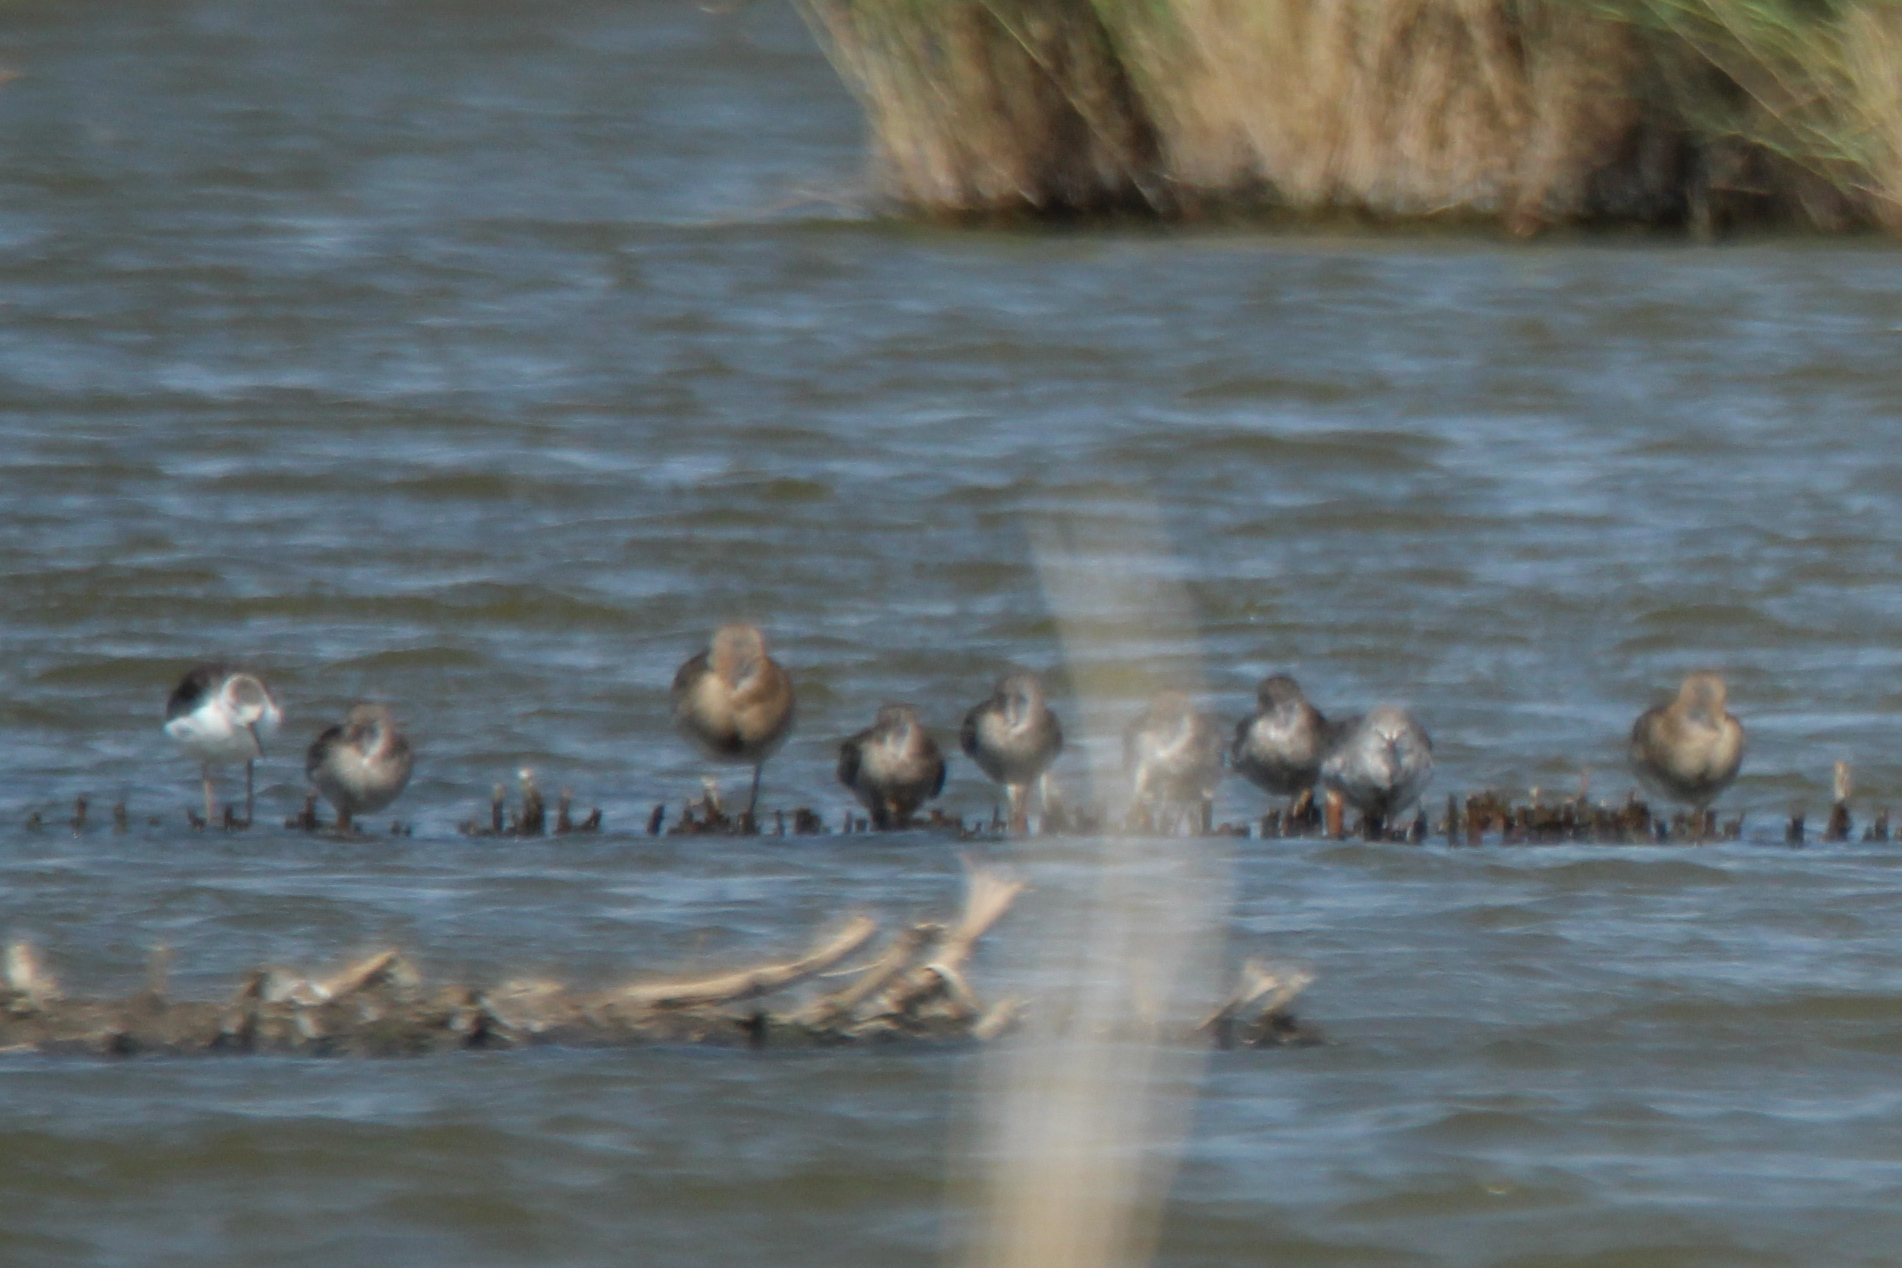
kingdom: Animalia
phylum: Chordata
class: Aves
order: Charadriiformes
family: Scolopacidae
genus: Tringa
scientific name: Tringa erythropus
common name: Spotted redshank
